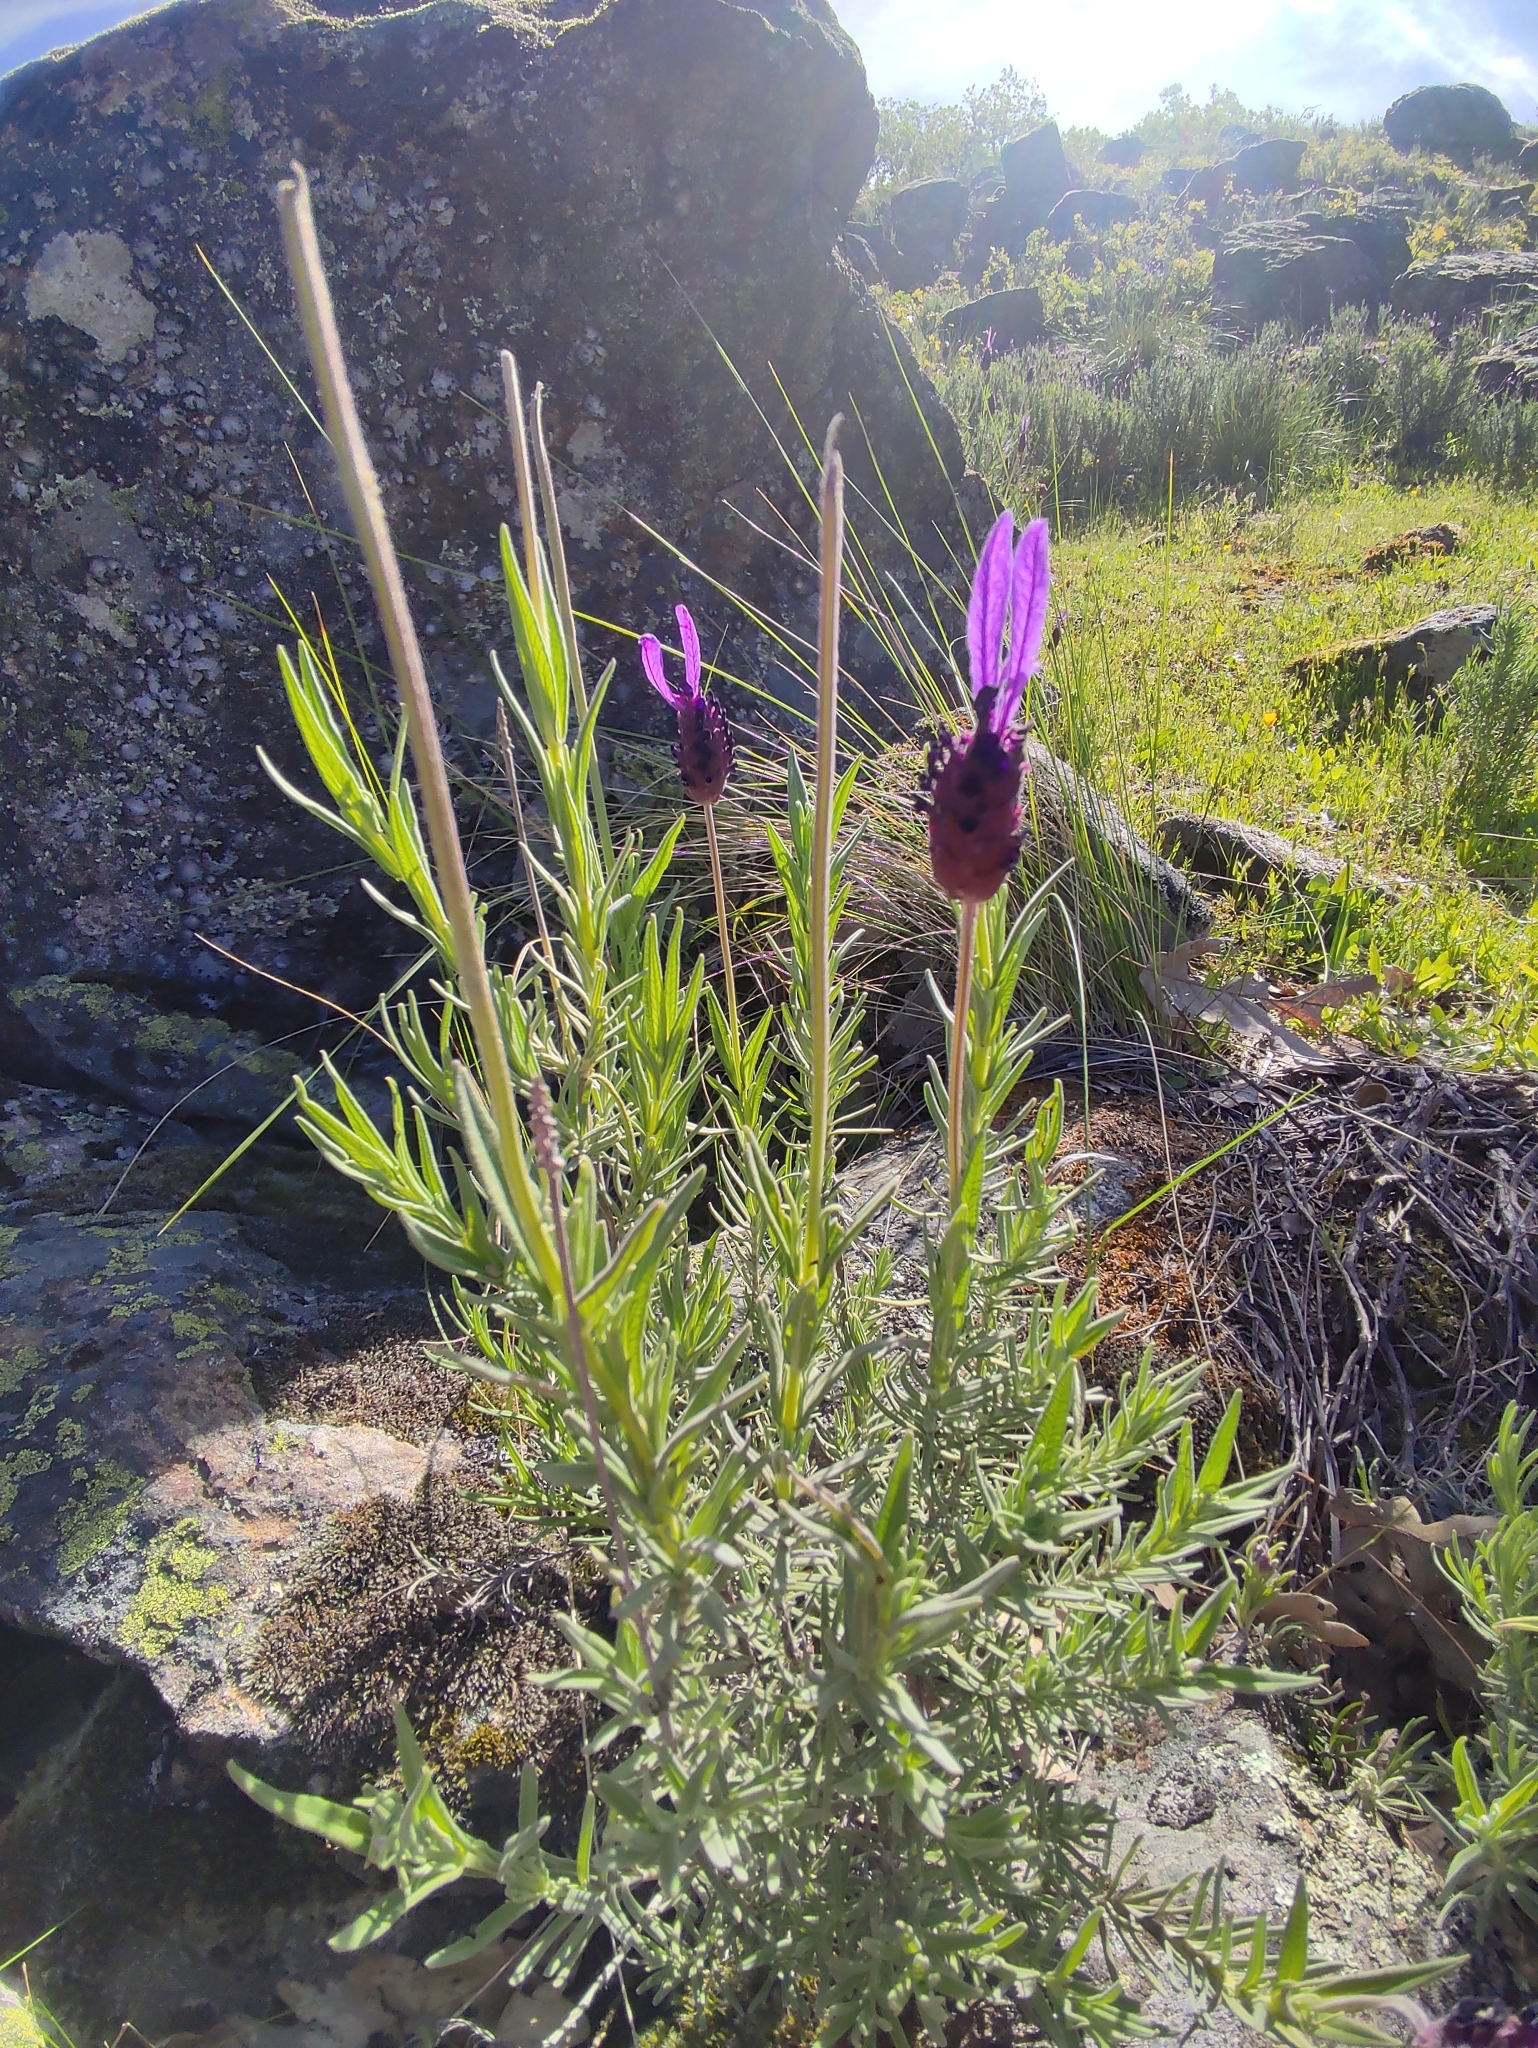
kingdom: Plantae
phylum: Tracheophyta
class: Magnoliopsida
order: Lamiales
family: Lamiaceae
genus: Lavandula
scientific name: Lavandula pedunculata
